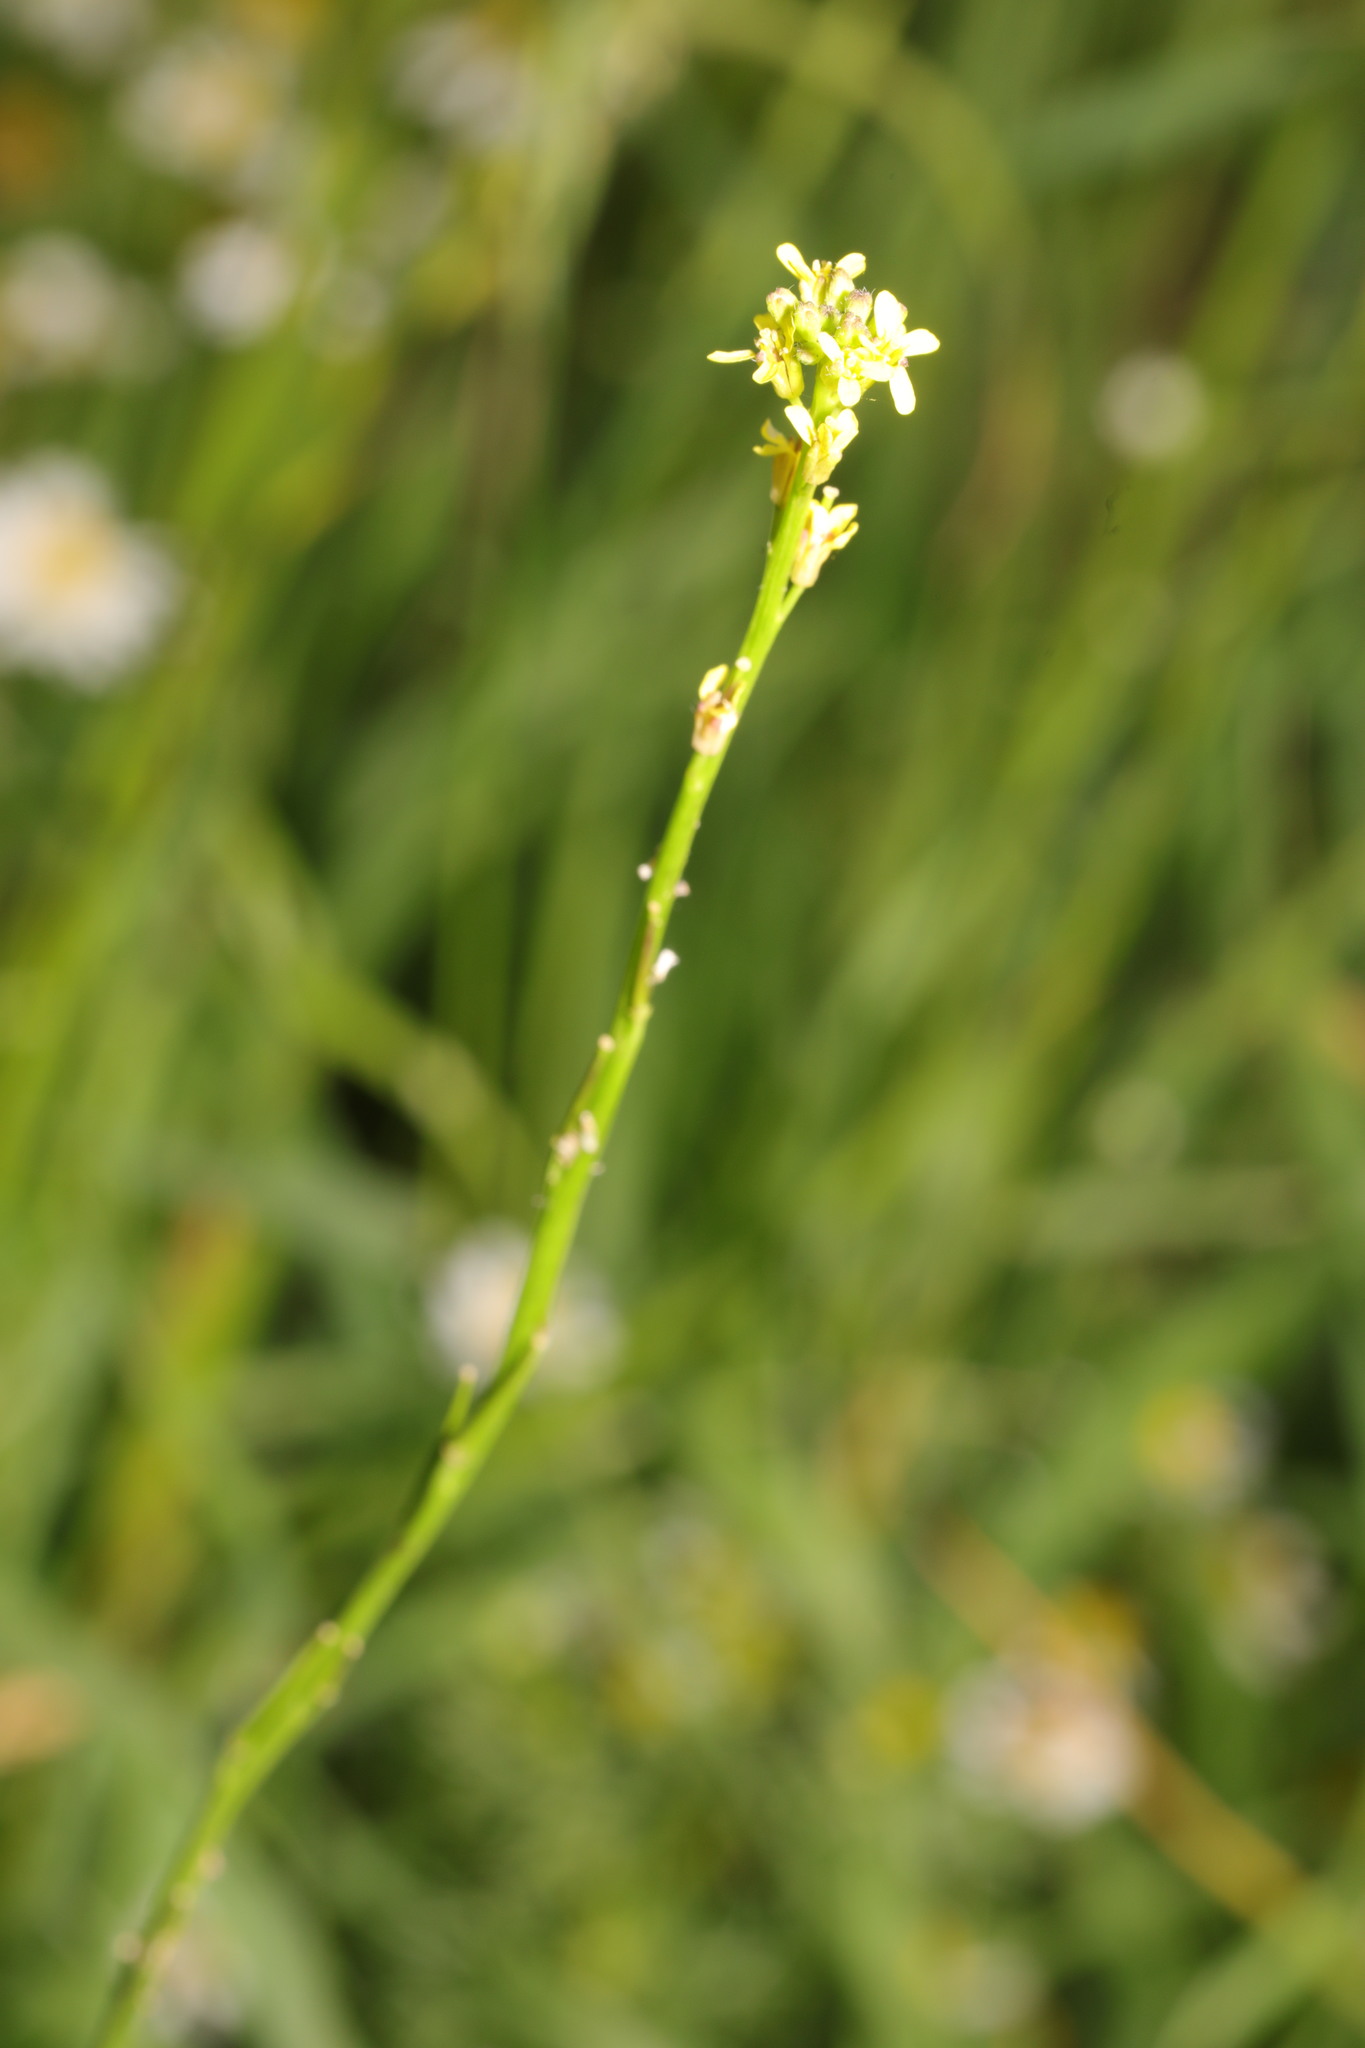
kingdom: Plantae
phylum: Tracheophyta
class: Magnoliopsida
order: Brassicales
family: Brassicaceae
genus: Sisymbrium
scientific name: Sisymbrium officinale
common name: Hedge mustard
